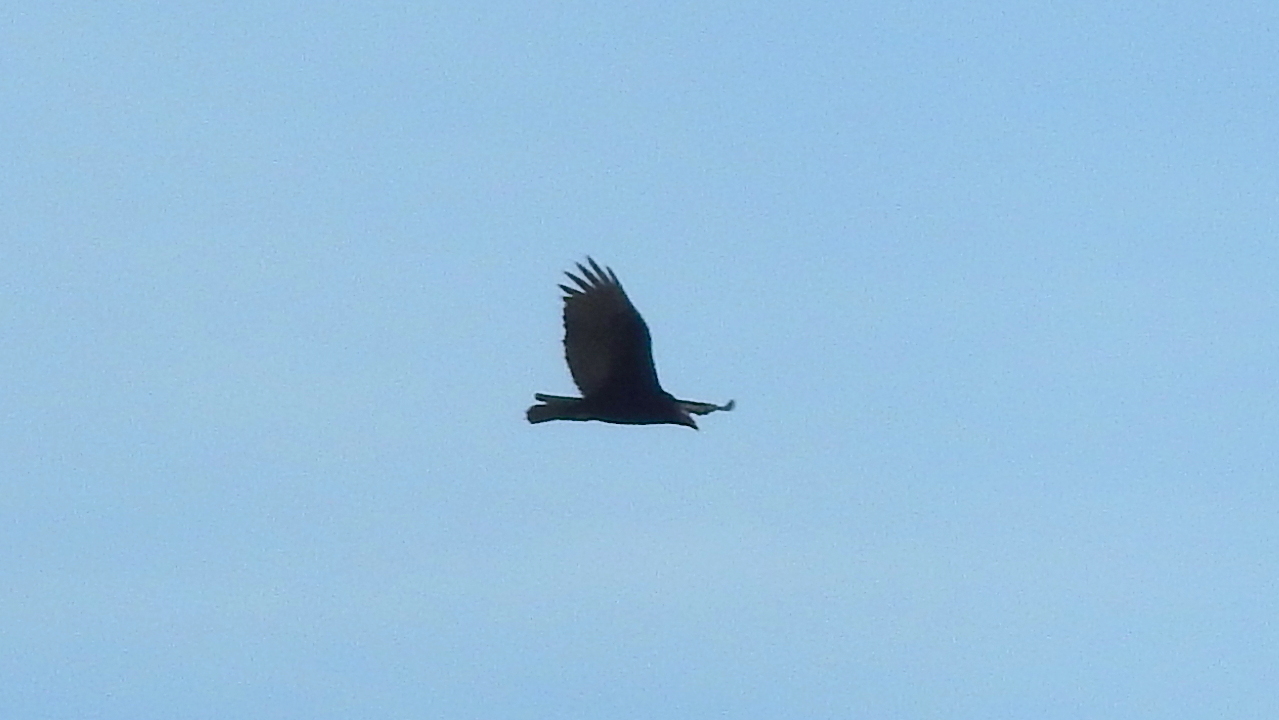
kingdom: Animalia
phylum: Chordata
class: Aves
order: Accipitriformes
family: Cathartidae
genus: Cathartes
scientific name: Cathartes aura
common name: Turkey vulture
